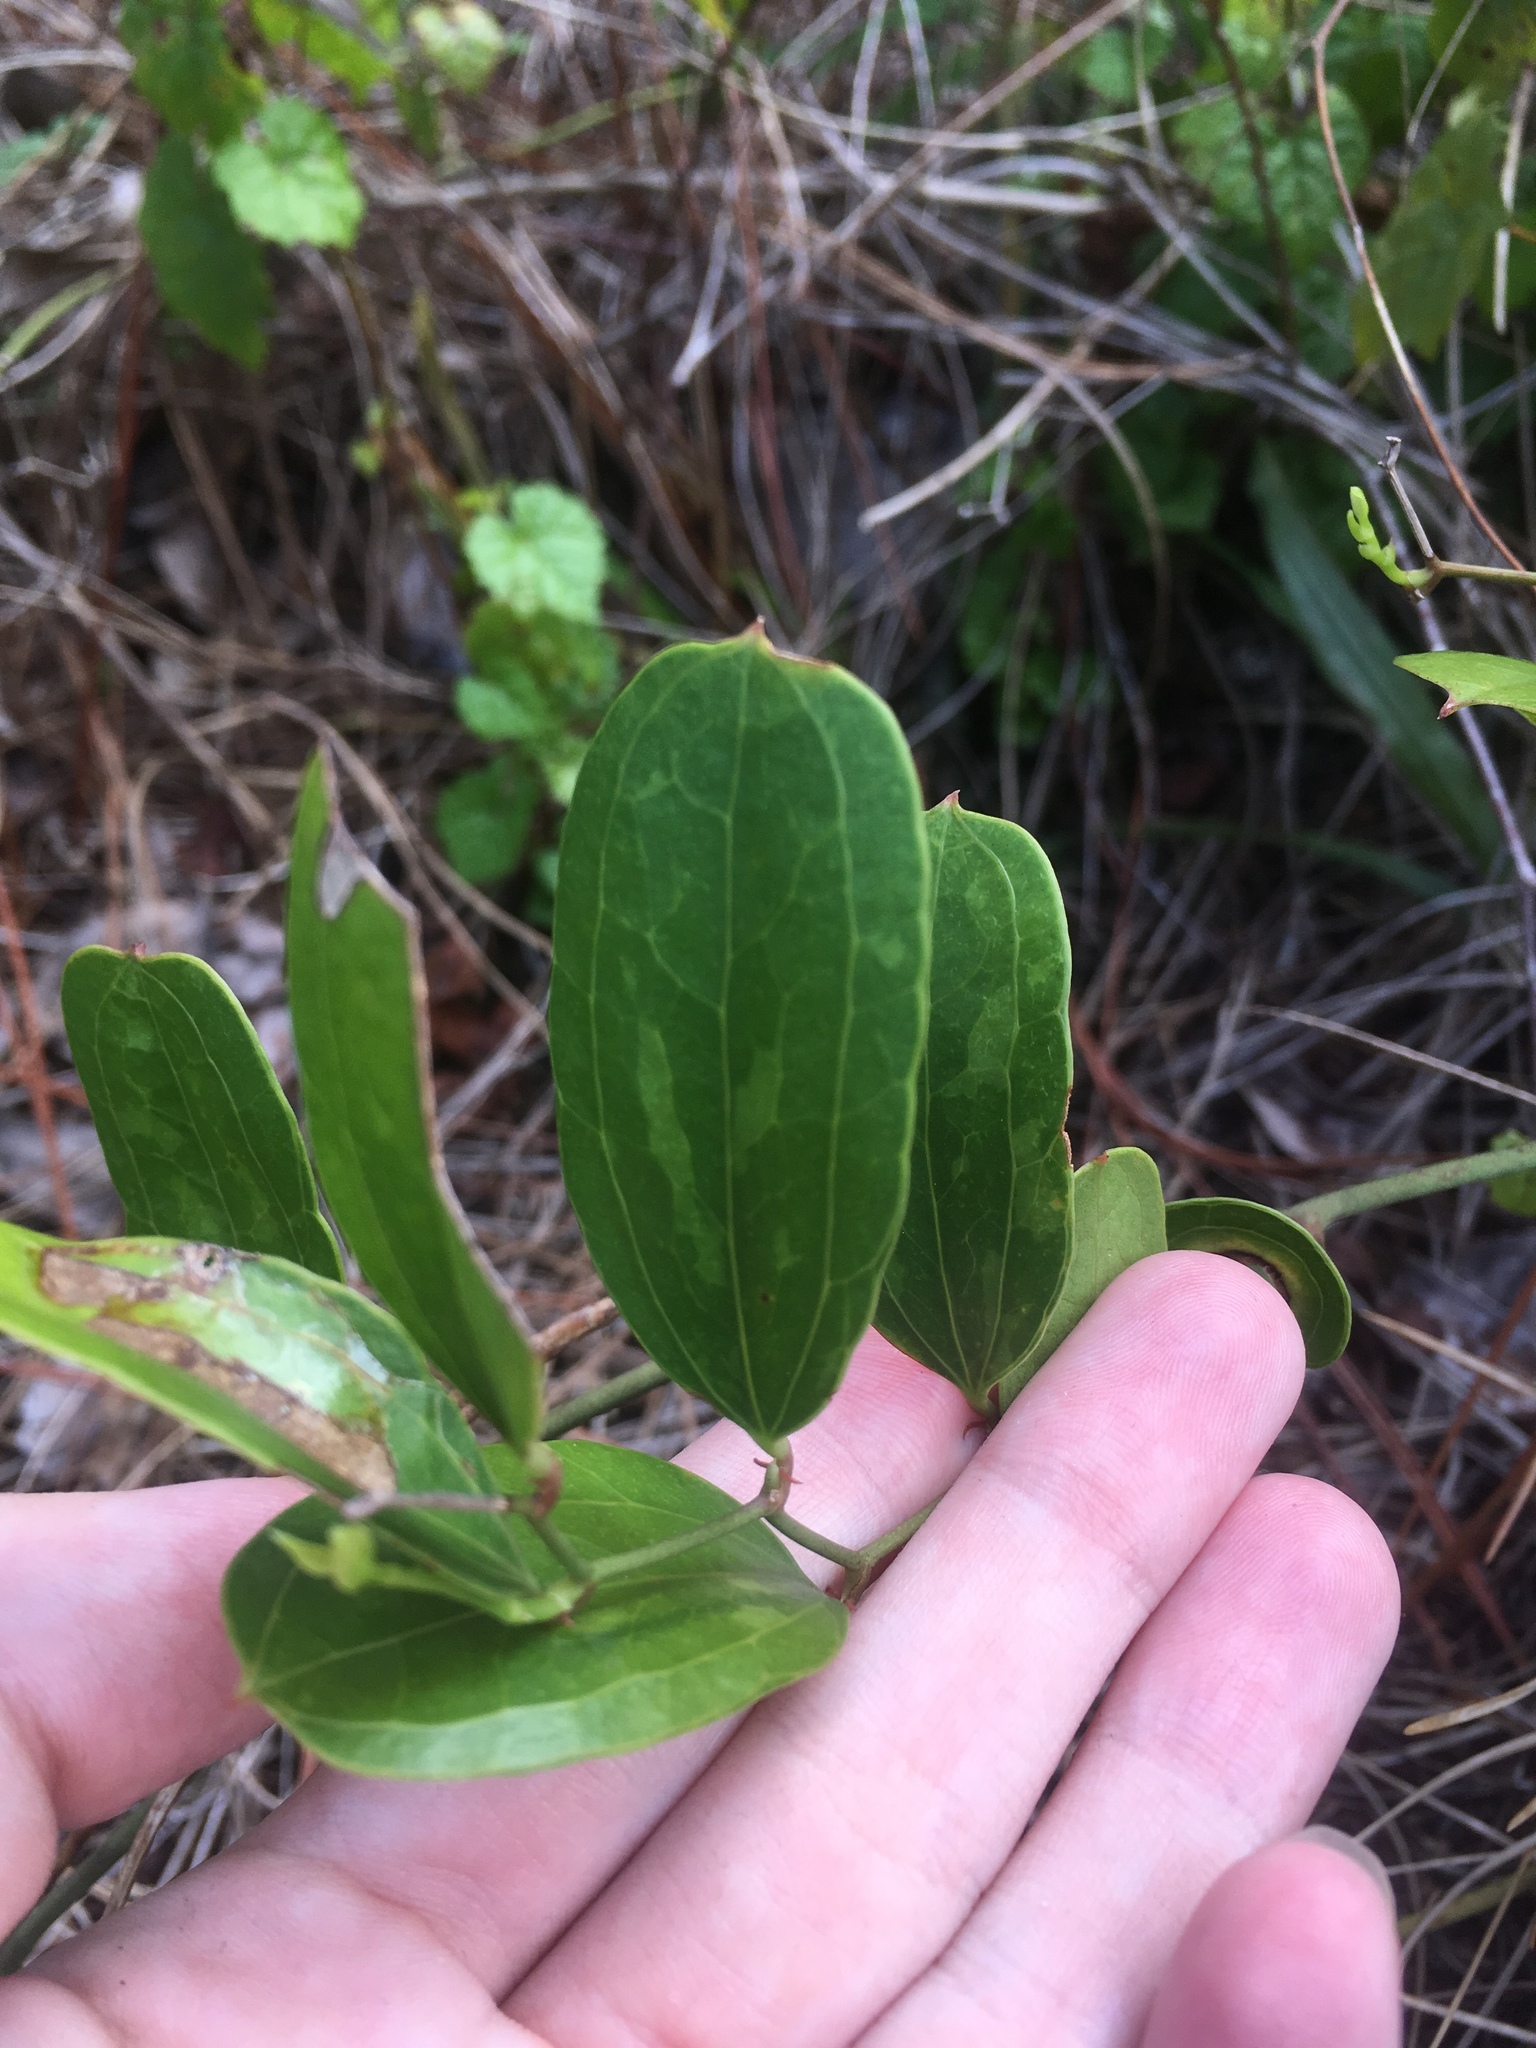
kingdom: Plantae
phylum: Tracheophyta
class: Liliopsida
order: Liliales
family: Smilacaceae
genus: Smilax
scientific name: Smilax auriculata
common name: Wild bamboo
